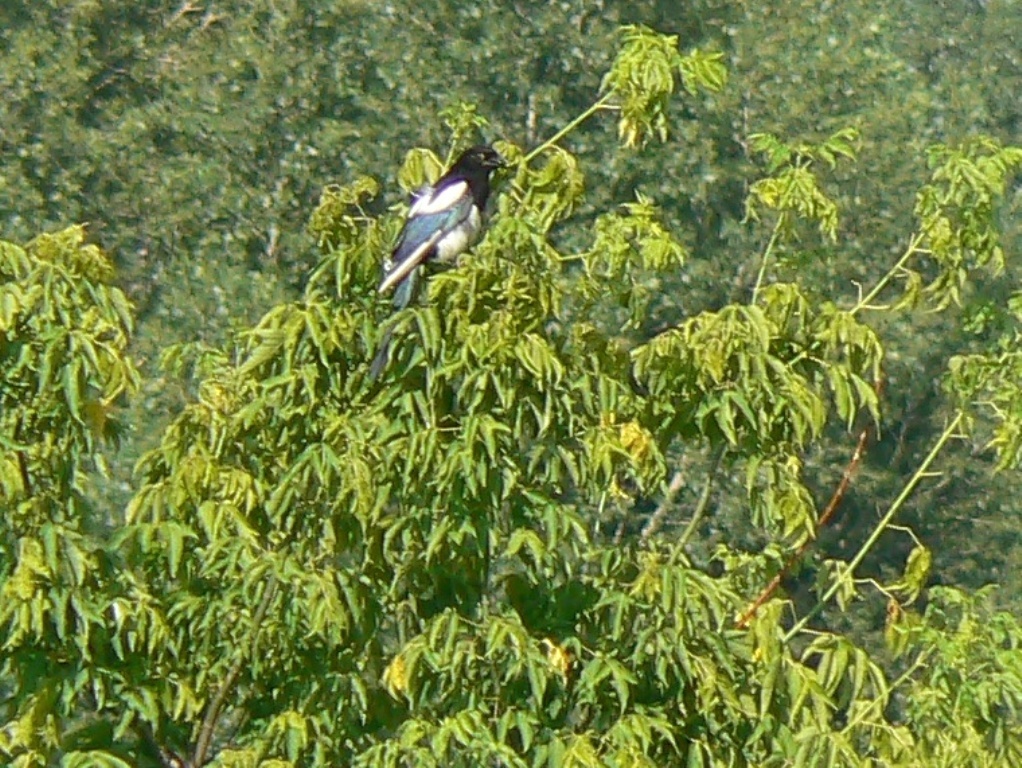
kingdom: Animalia
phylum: Chordata
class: Aves
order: Passeriformes
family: Corvidae
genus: Pica
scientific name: Pica pica
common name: Eurasian magpie
